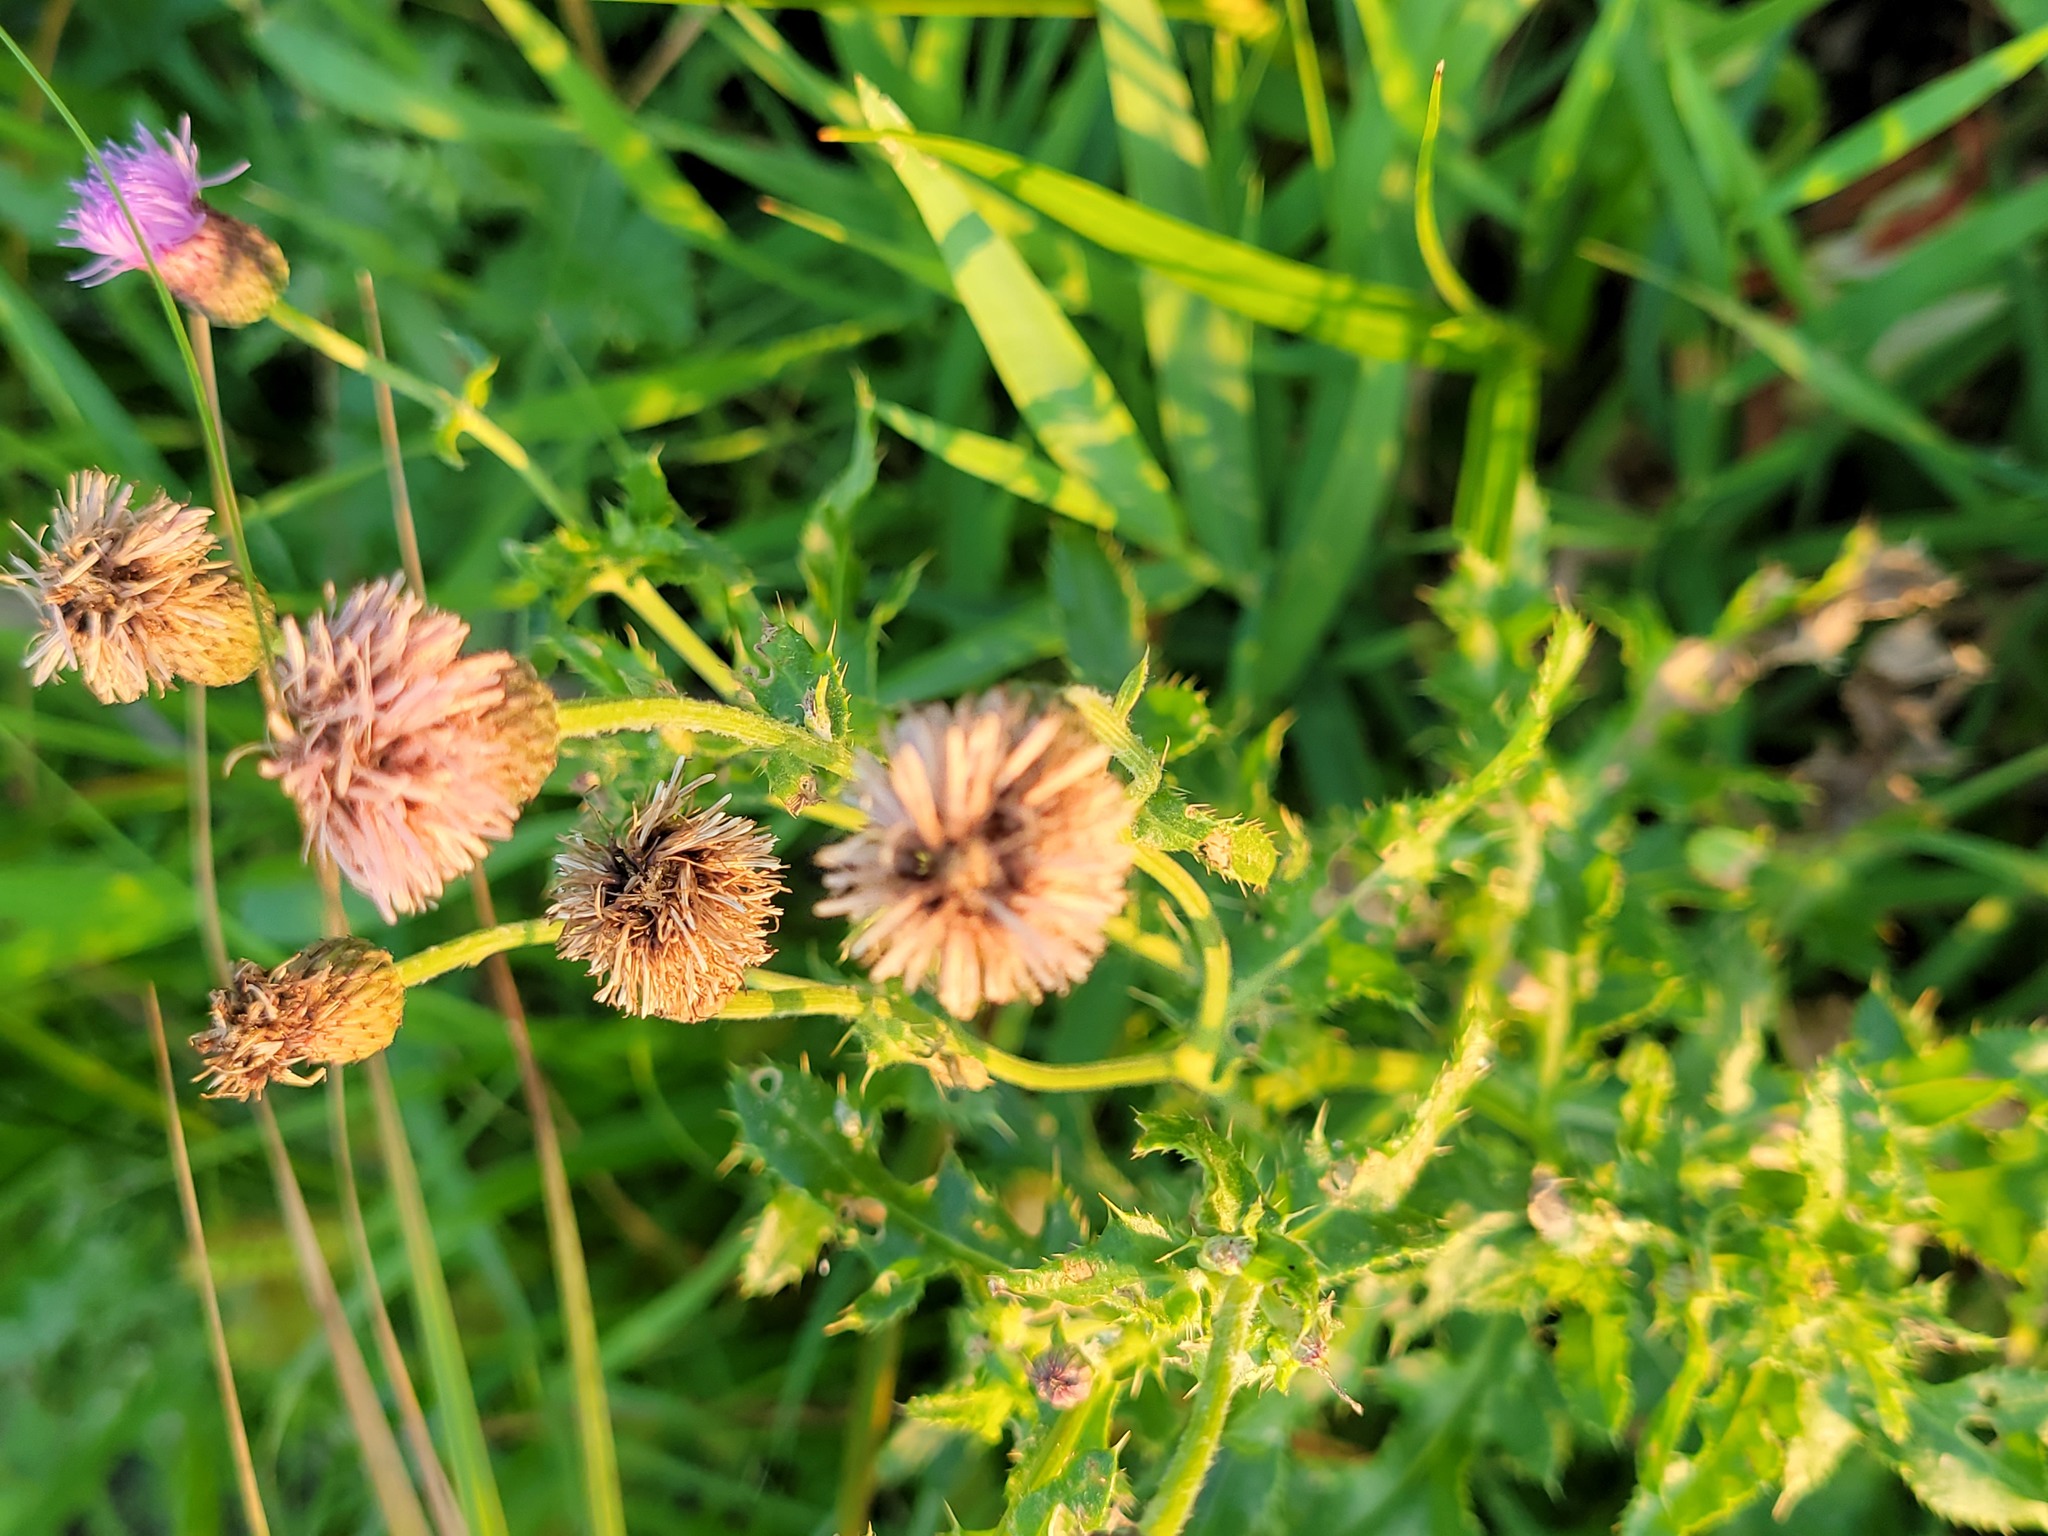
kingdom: Plantae
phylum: Tracheophyta
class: Magnoliopsida
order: Asterales
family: Asteraceae
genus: Cirsium
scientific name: Cirsium arvense
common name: Creeping thistle
